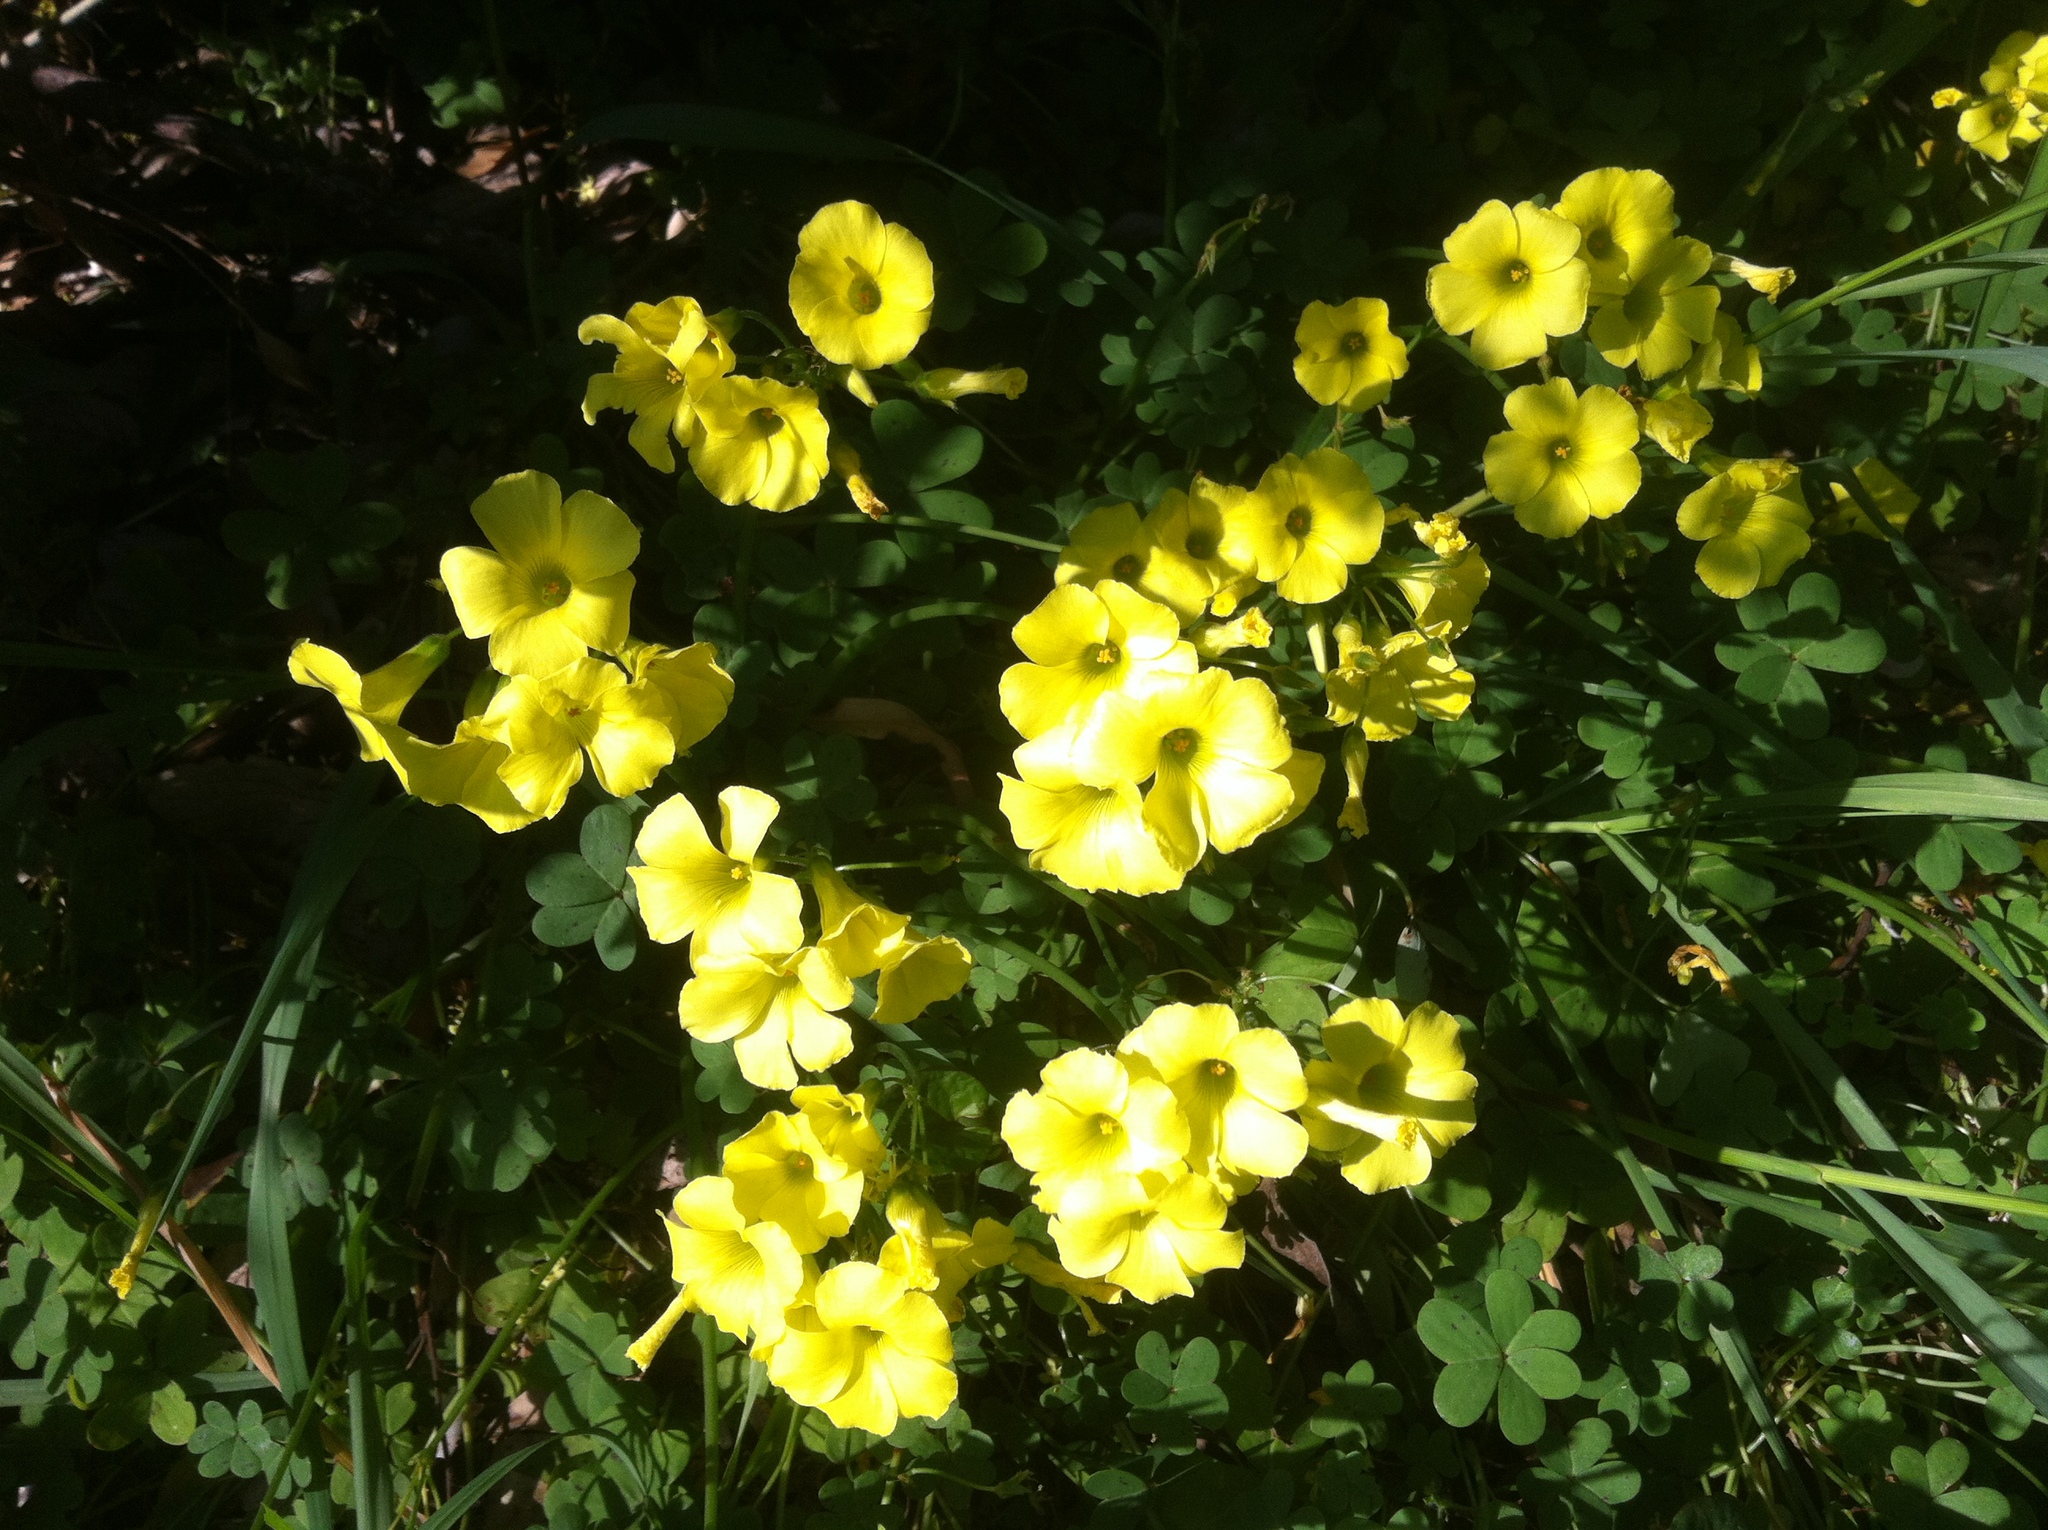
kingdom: Plantae
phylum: Tracheophyta
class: Magnoliopsida
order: Oxalidales
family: Oxalidaceae
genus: Oxalis
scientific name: Oxalis pes-caprae
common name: Bermuda-buttercup
